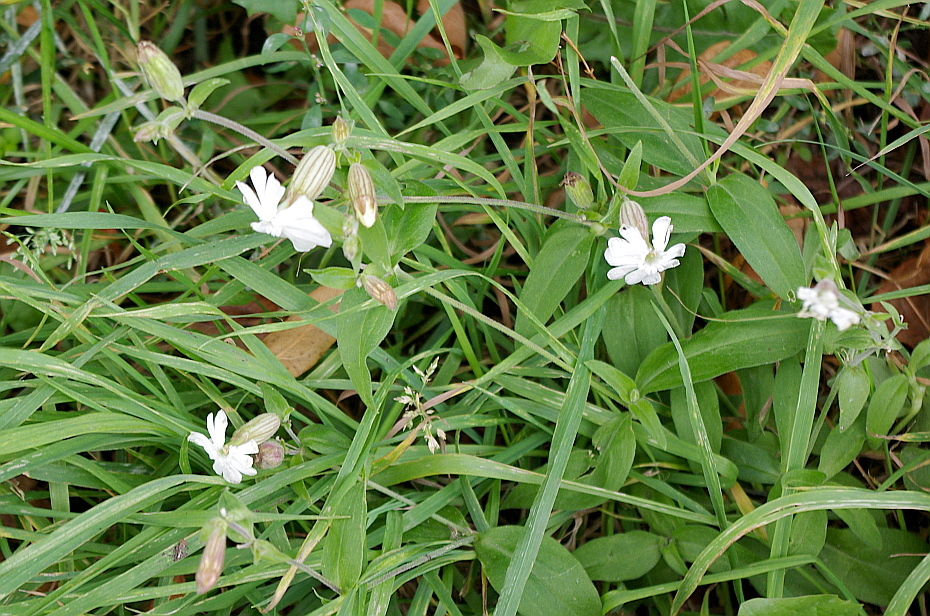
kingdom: Plantae
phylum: Tracheophyta
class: Magnoliopsida
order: Caryophyllales
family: Caryophyllaceae
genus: Silene
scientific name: Silene latifolia
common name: White campion
